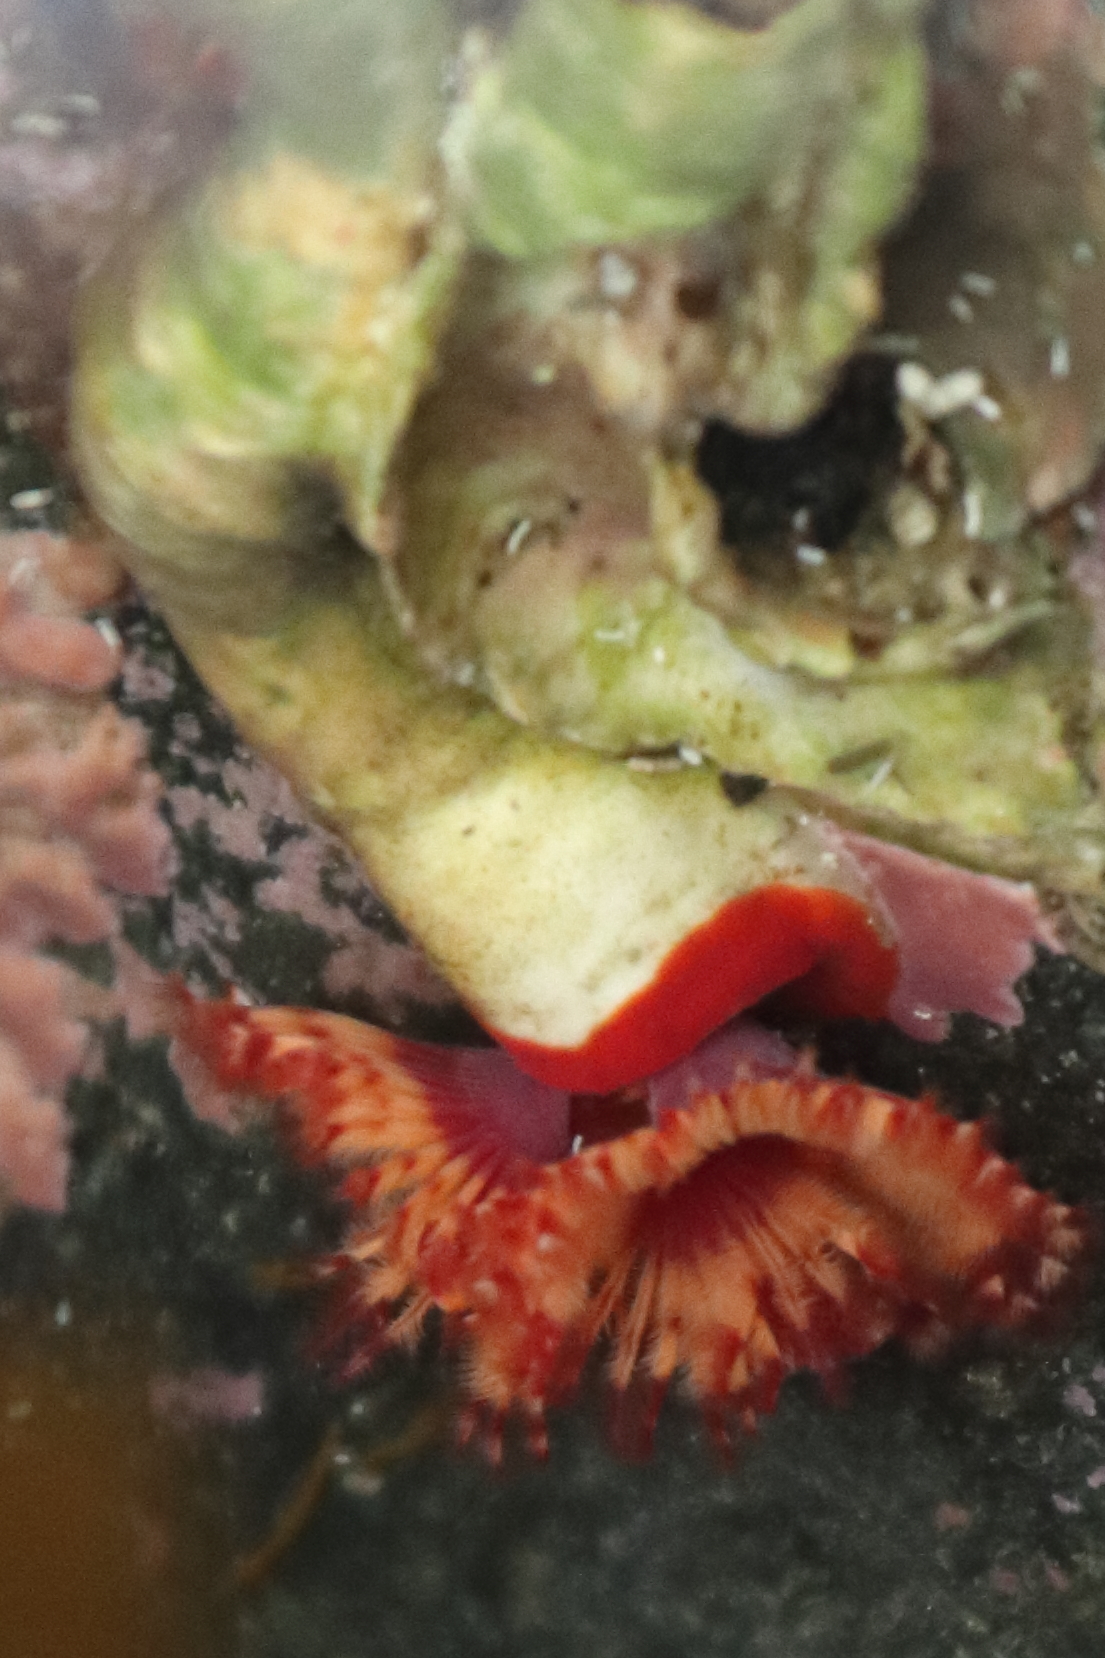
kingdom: Animalia
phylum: Annelida
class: Polychaeta
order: Sabellida
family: Serpulidae
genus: Serpula
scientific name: Serpula columbiana
